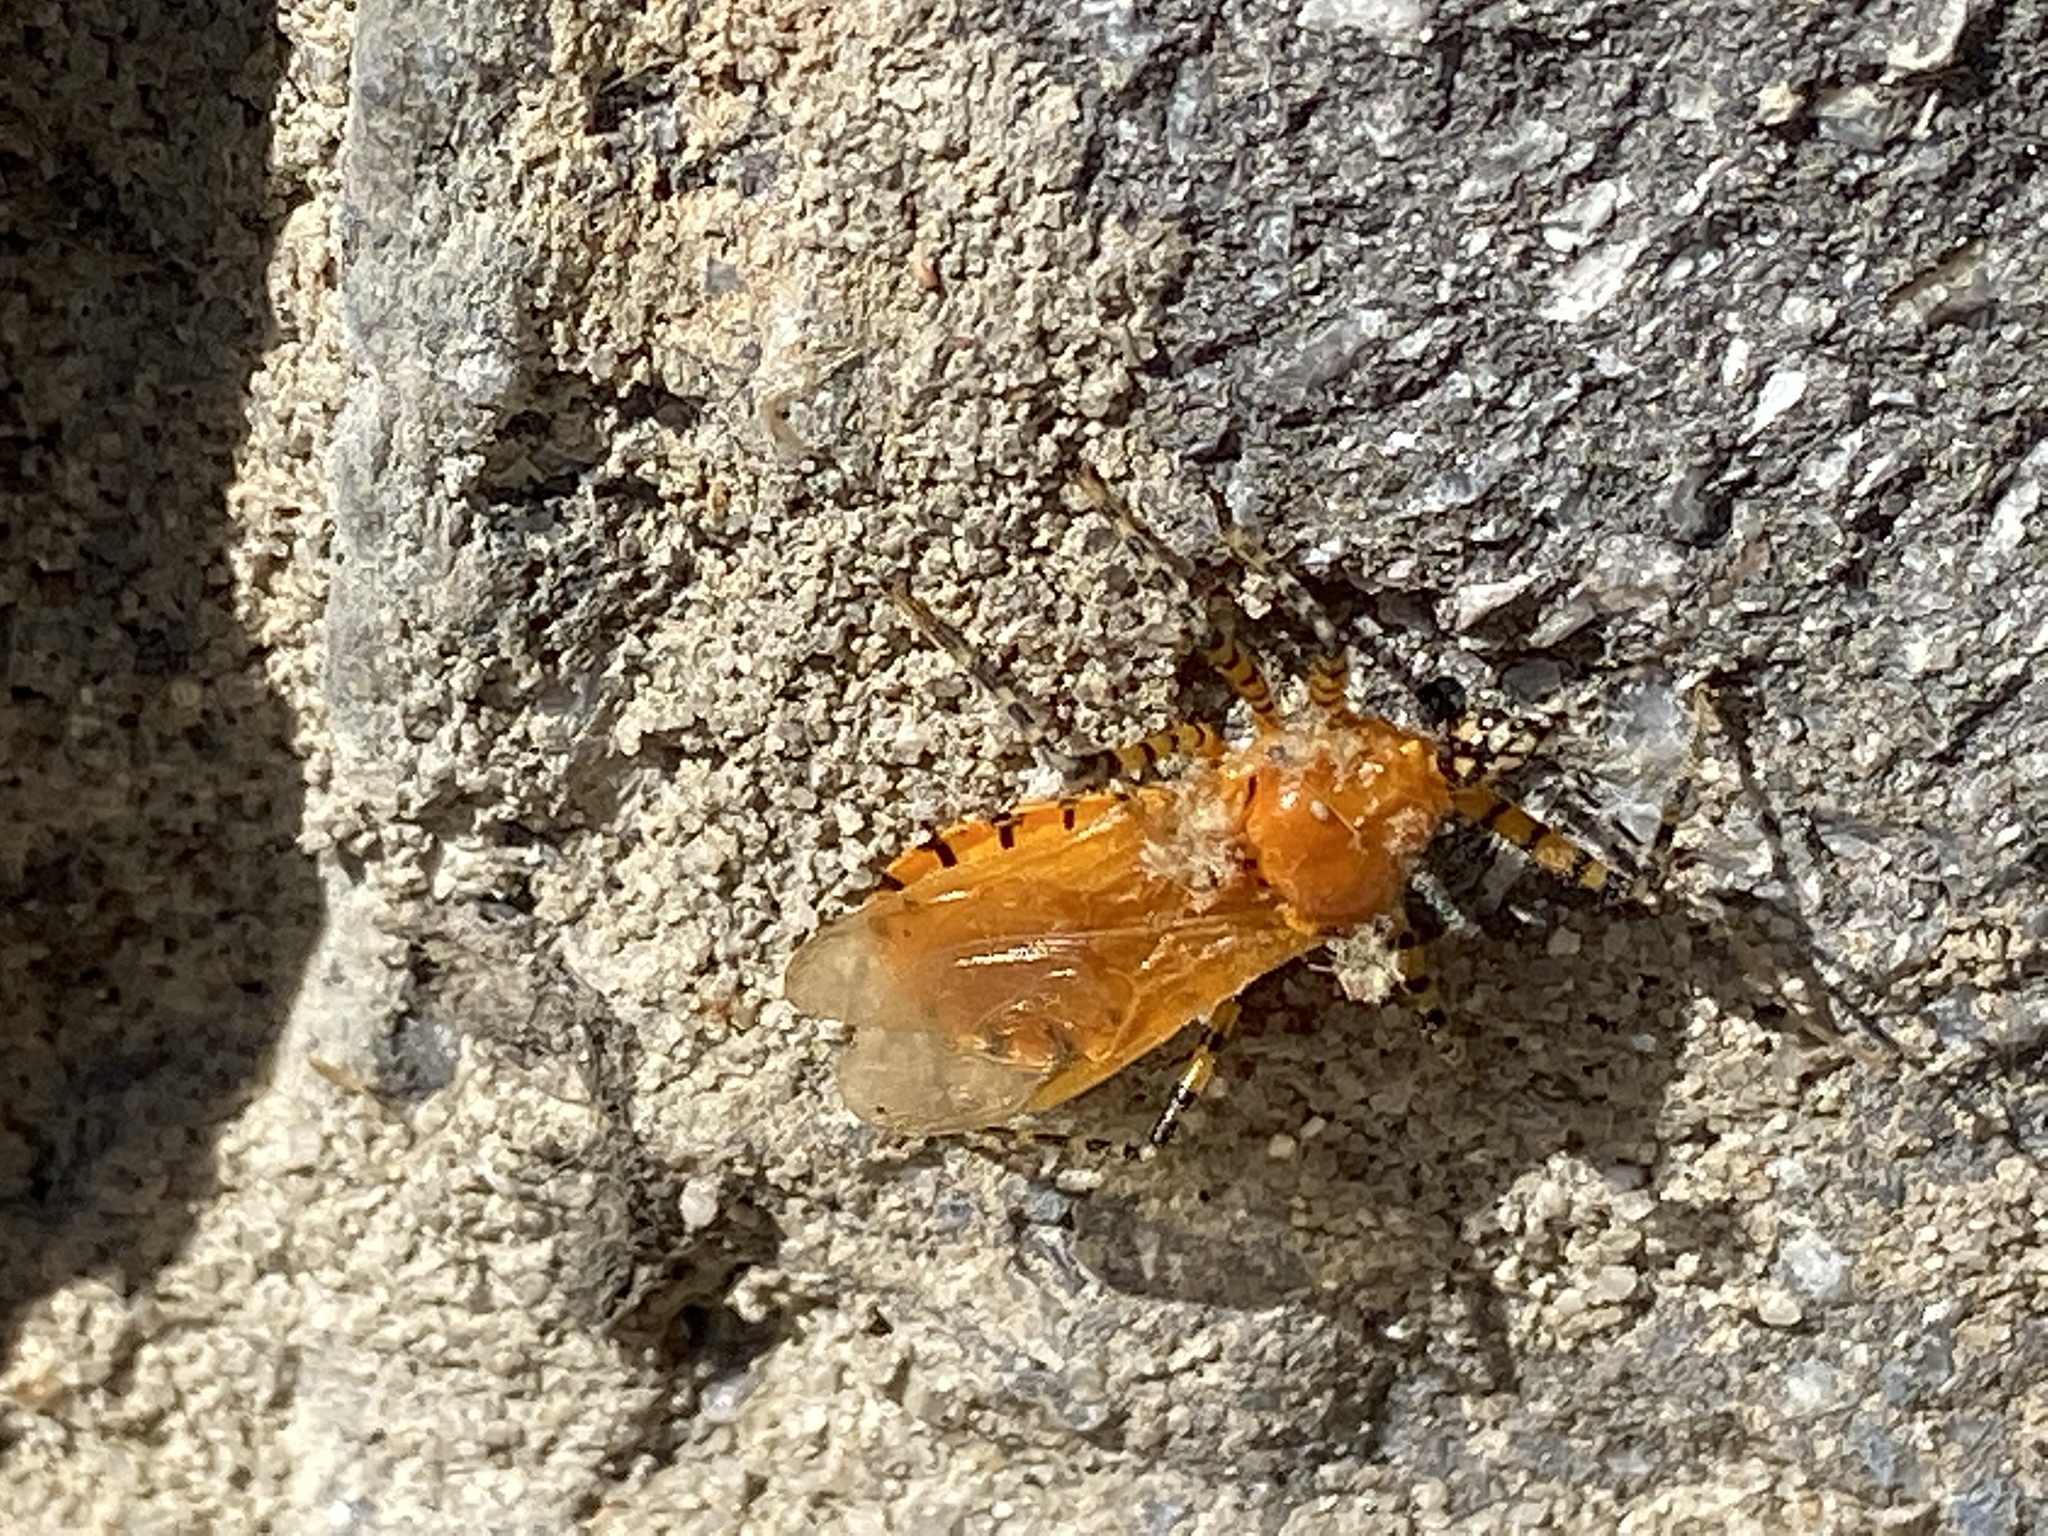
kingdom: Animalia
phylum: Arthropoda
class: Insecta
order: Hemiptera
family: Reduviidae
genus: Pselliopus
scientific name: Pselliopus barberi
